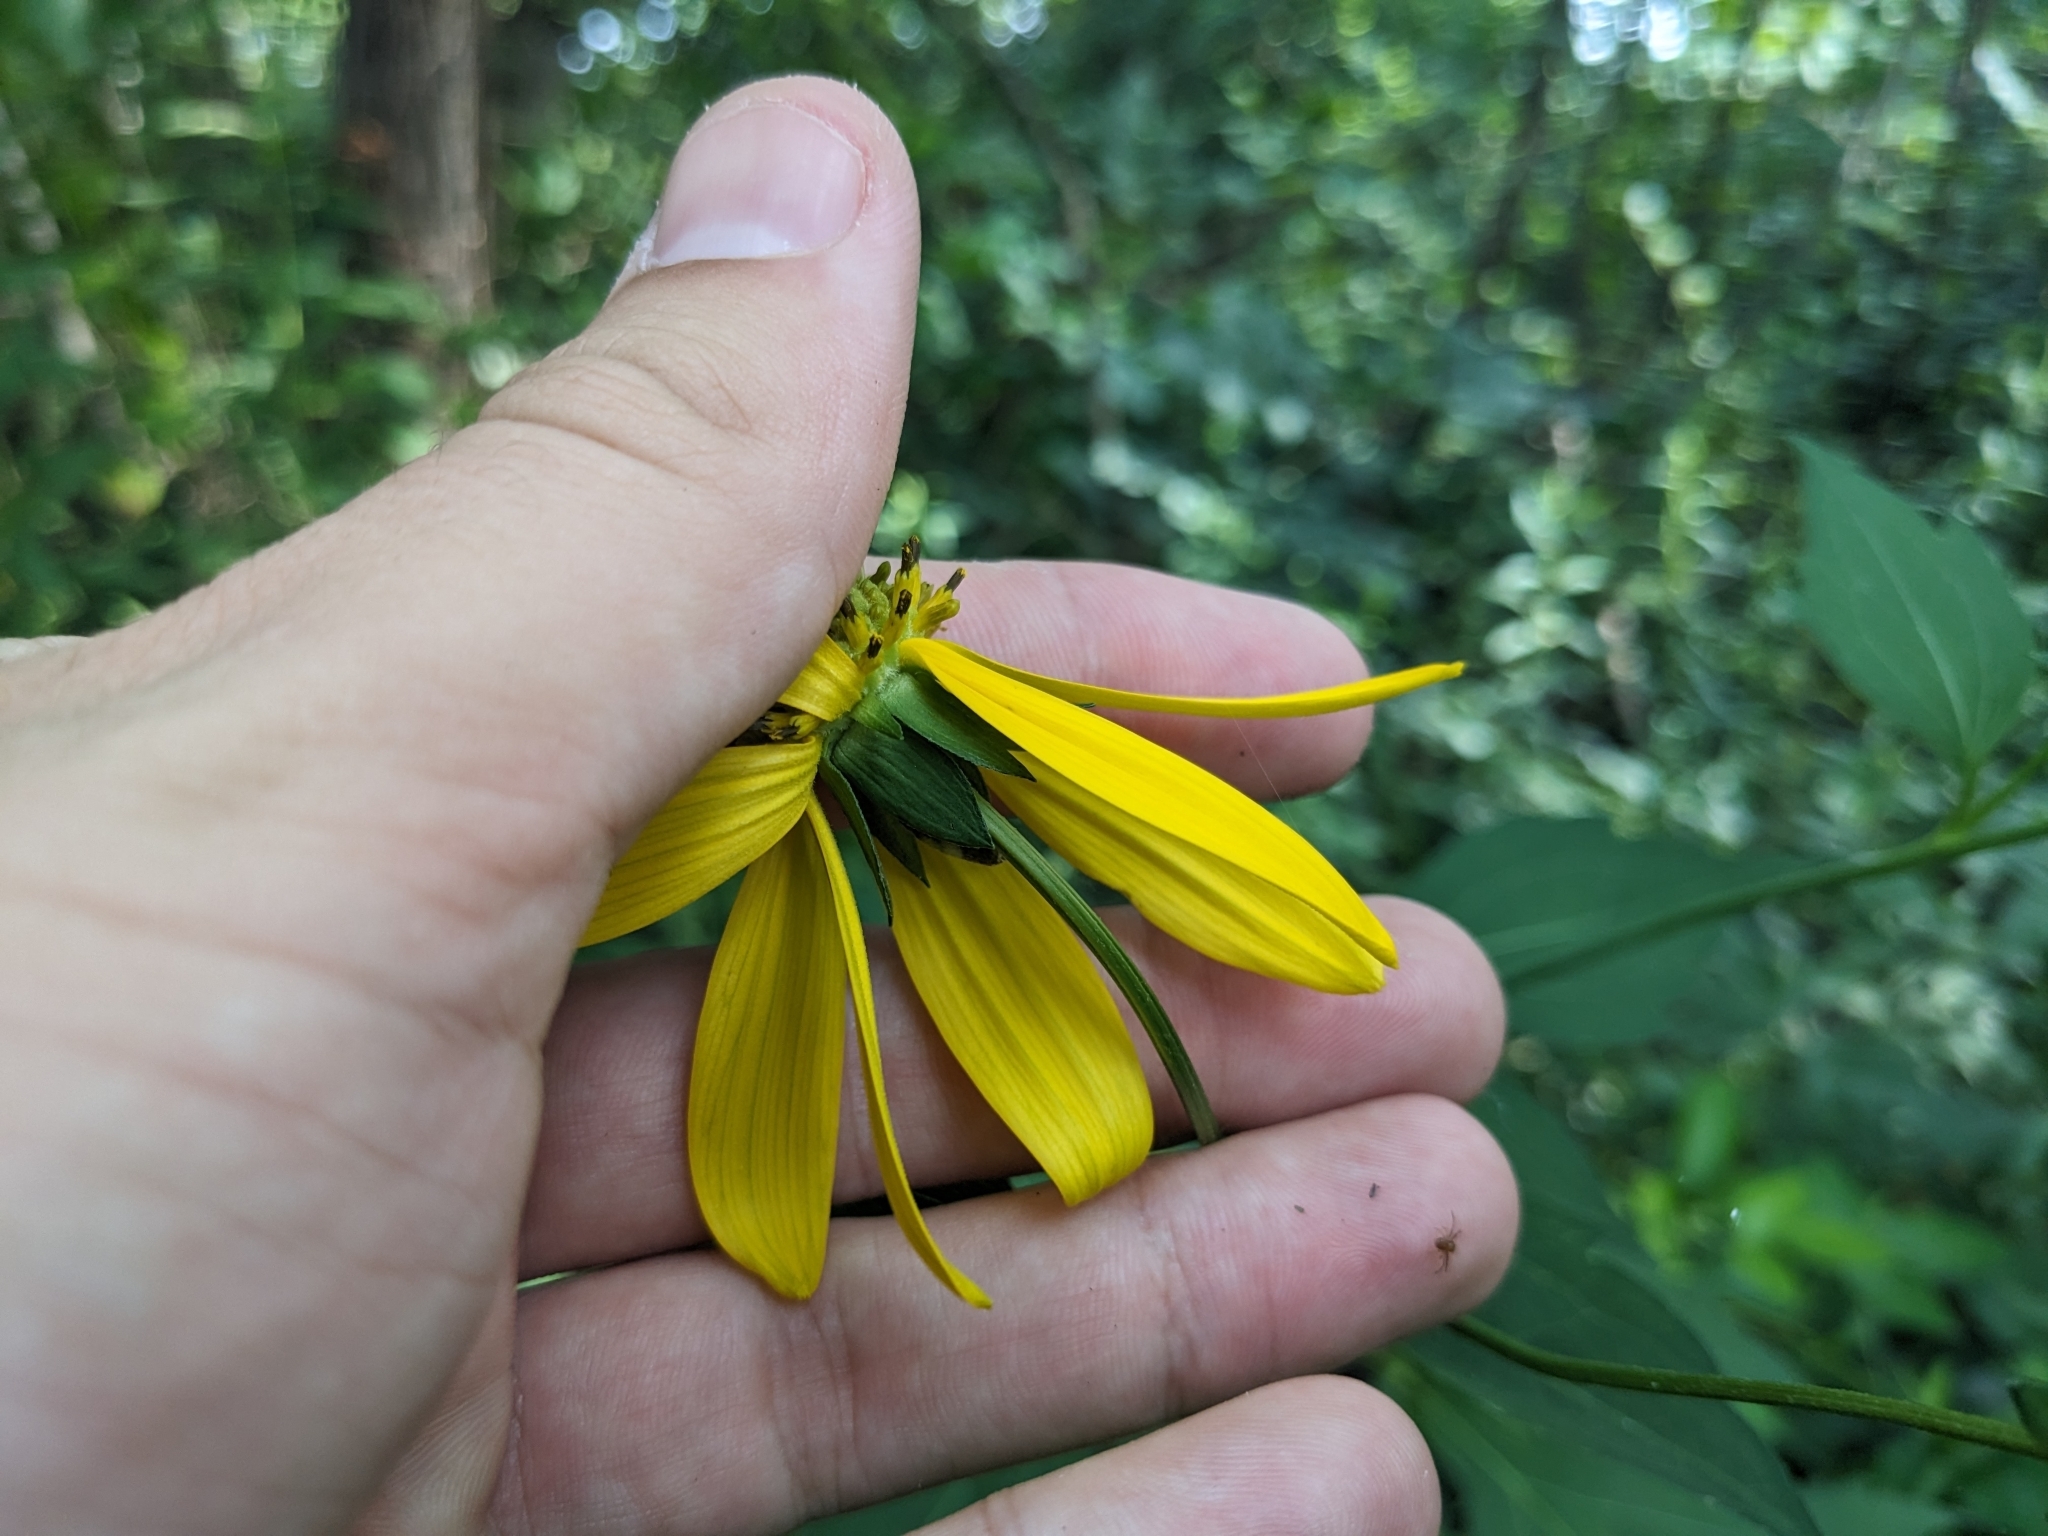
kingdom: Plantae
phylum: Tracheophyta
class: Magnoliopsida
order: Asterales
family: Asteraceae
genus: Rudbeckia
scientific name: Rudbeckia laciniata
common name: Coneflower
